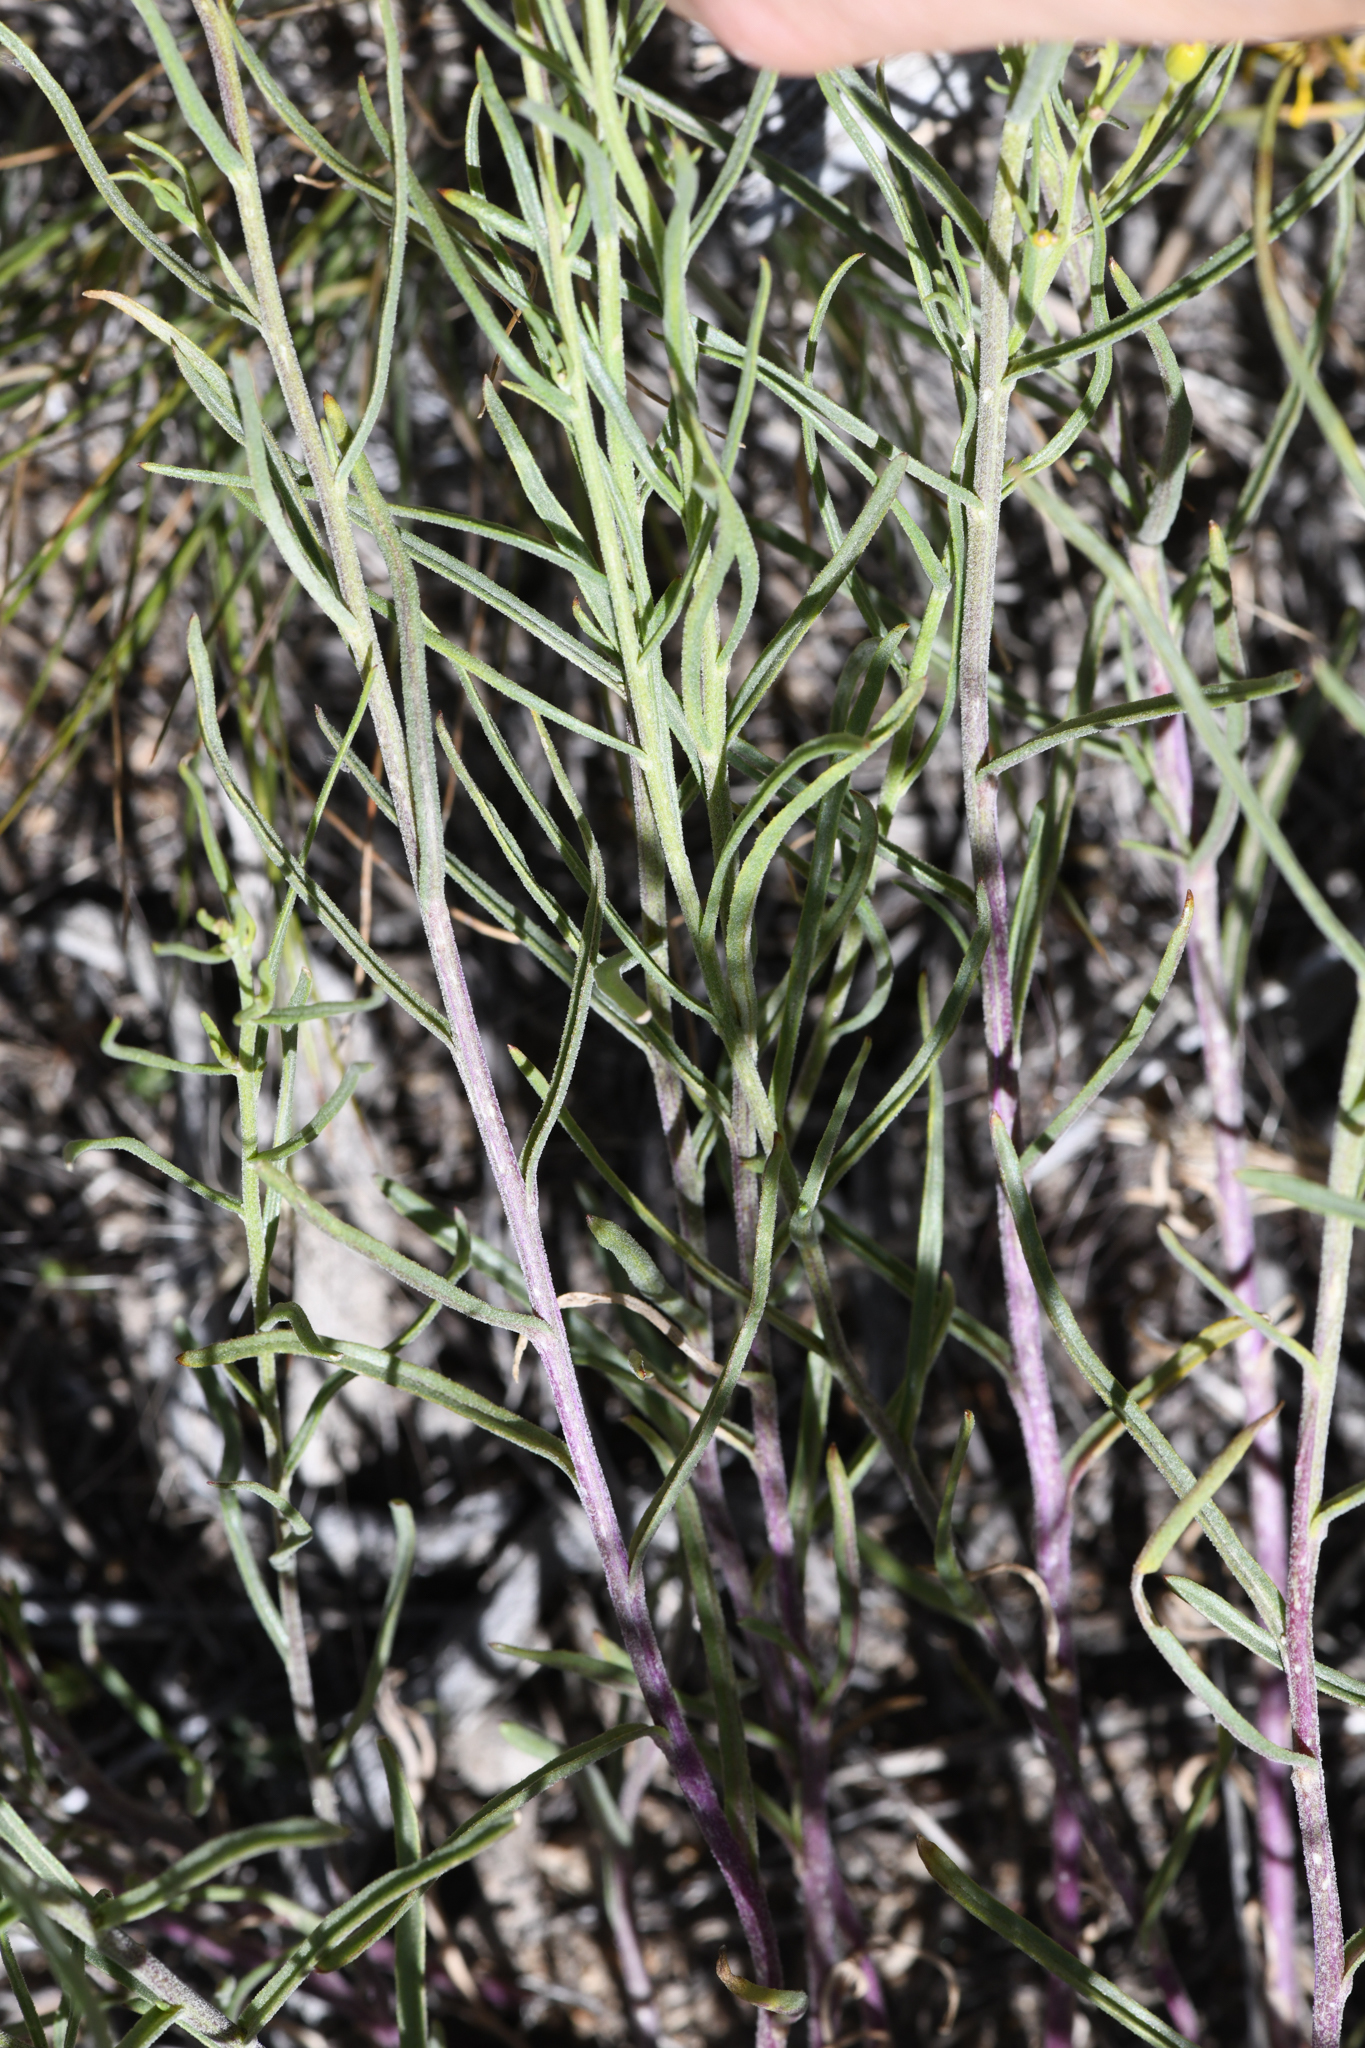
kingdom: Plantae
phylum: Tracheophyta
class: Magnoliopsida
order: Asterales
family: Asteraceae
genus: Senecio
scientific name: Senecio spartioides
